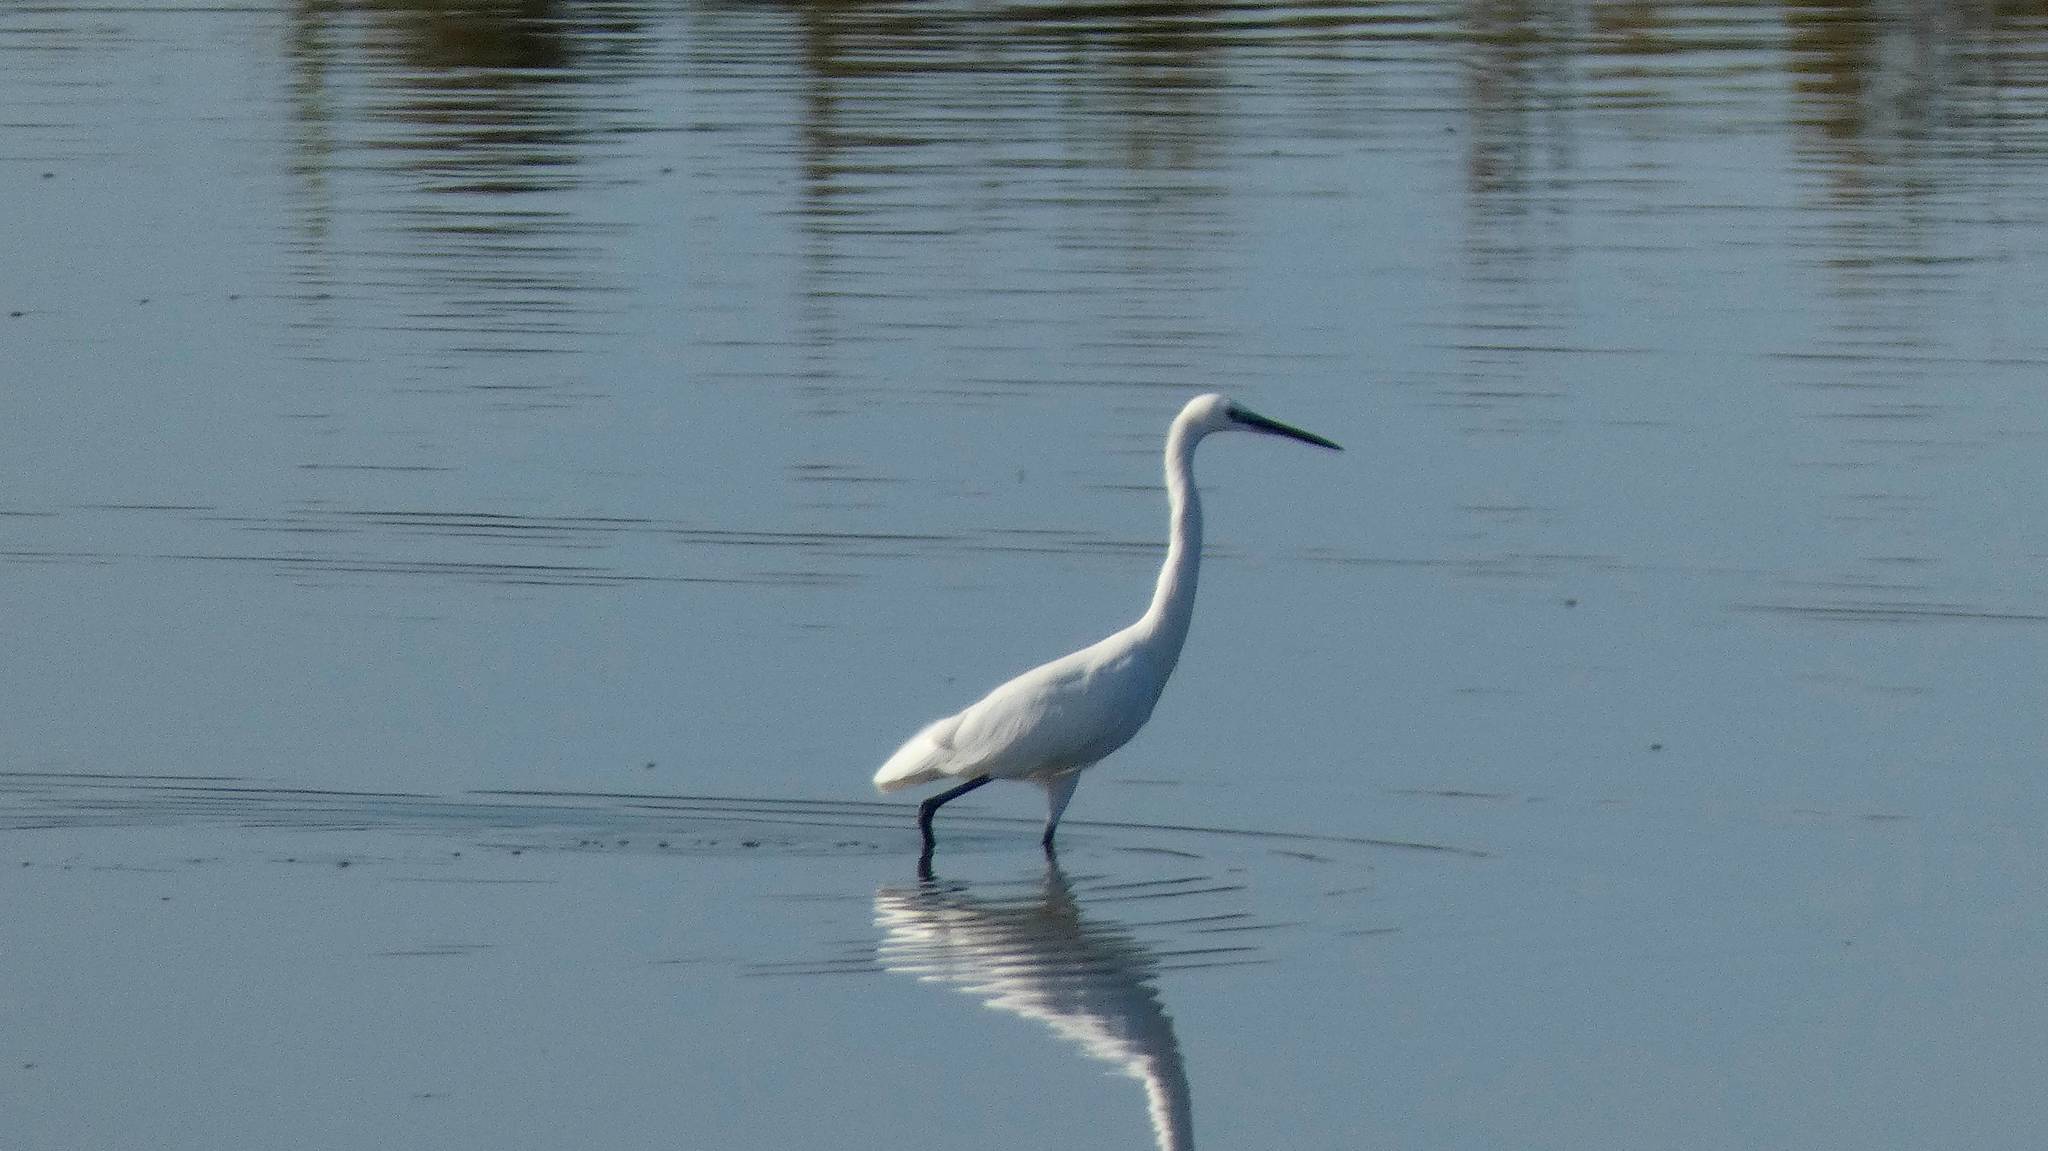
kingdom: Animalia
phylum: Chordata
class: Aves
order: Pelecaniformes
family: Ardeidae
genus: Egretta
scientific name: Egretta garzetta
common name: Little egret
